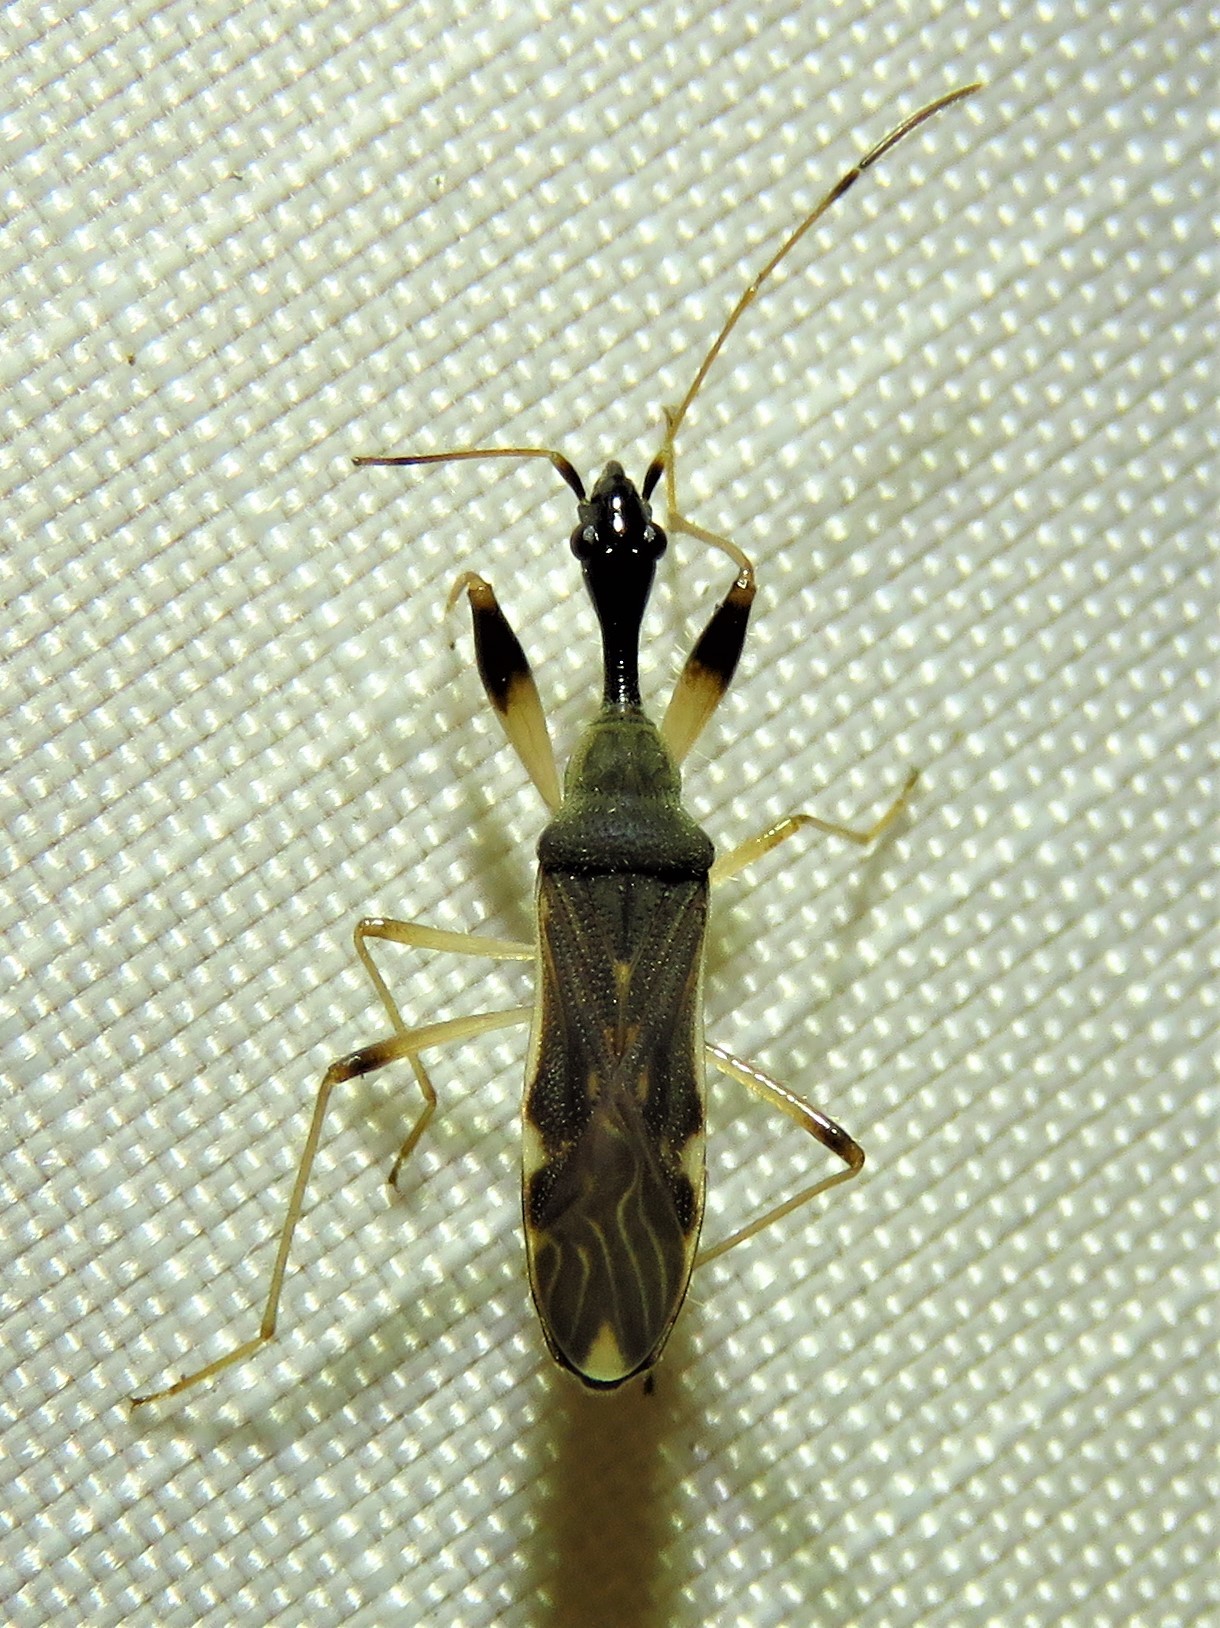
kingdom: Animalia
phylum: Arthropoda
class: Insecta
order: Hemiptera
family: Rhyparochromidae
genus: Myodocha
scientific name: Myodocha serripes
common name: Long-necked seed bug
